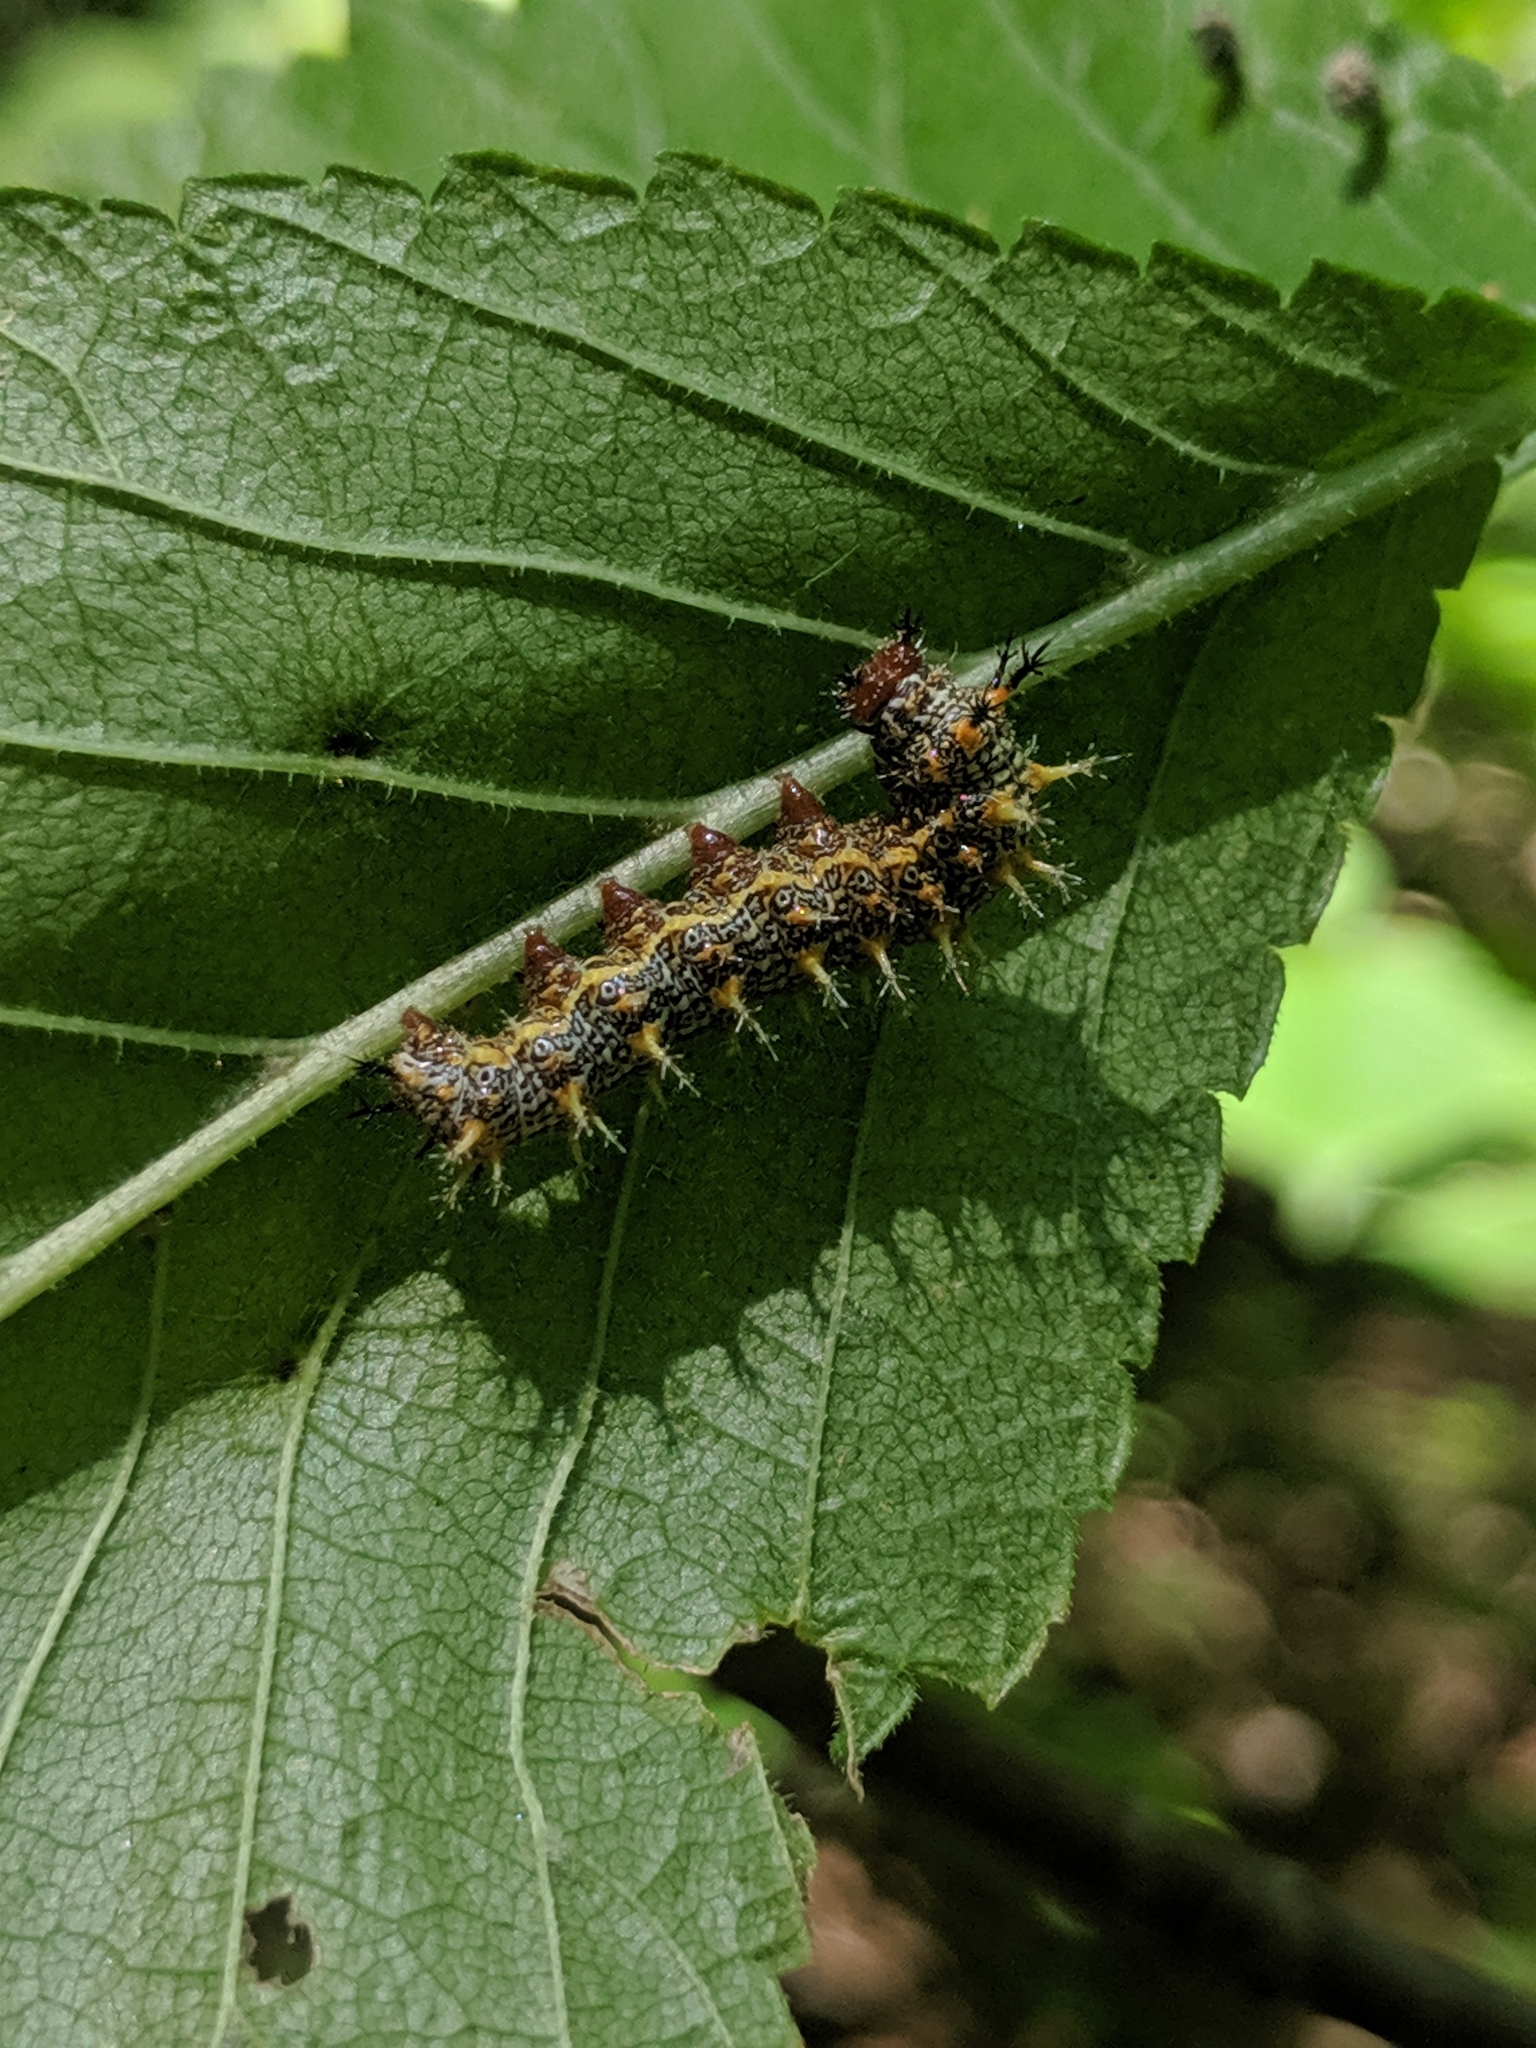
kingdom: Animalia
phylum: Arthropoda
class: Insecta
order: Lepidoptera
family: Nymphalidae
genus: Polygonia
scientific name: Polygonia interrogationis
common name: Question mark
